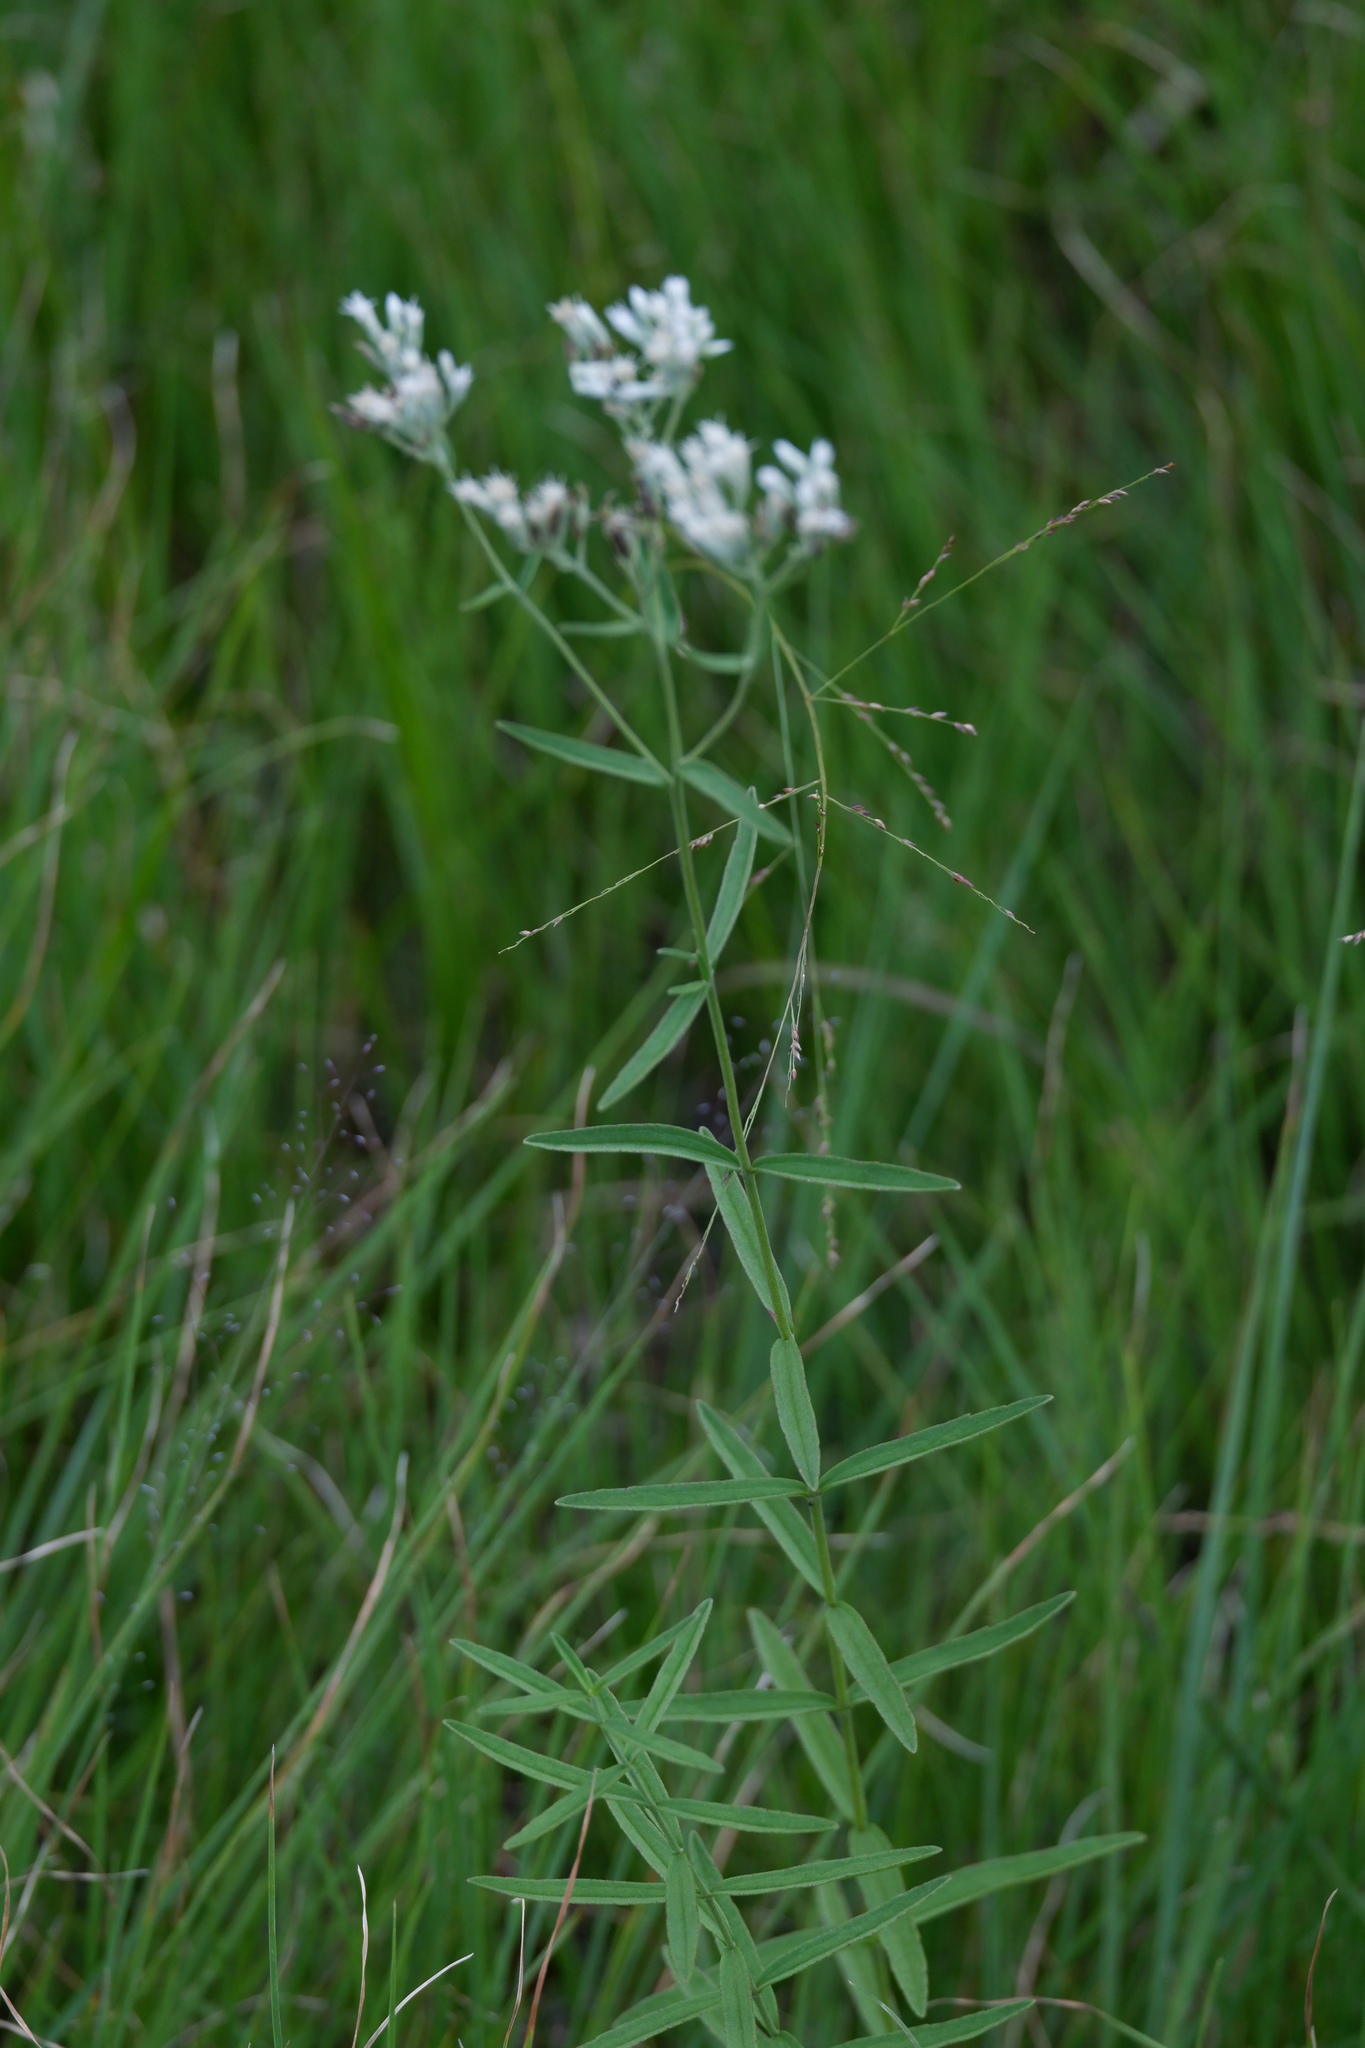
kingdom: Plantae
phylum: Tracheophyta
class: Magnoliopsida
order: Asterales
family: Asteraceae
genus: Eupatorium
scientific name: Eupatorium leucolepis
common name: Justiceweed
